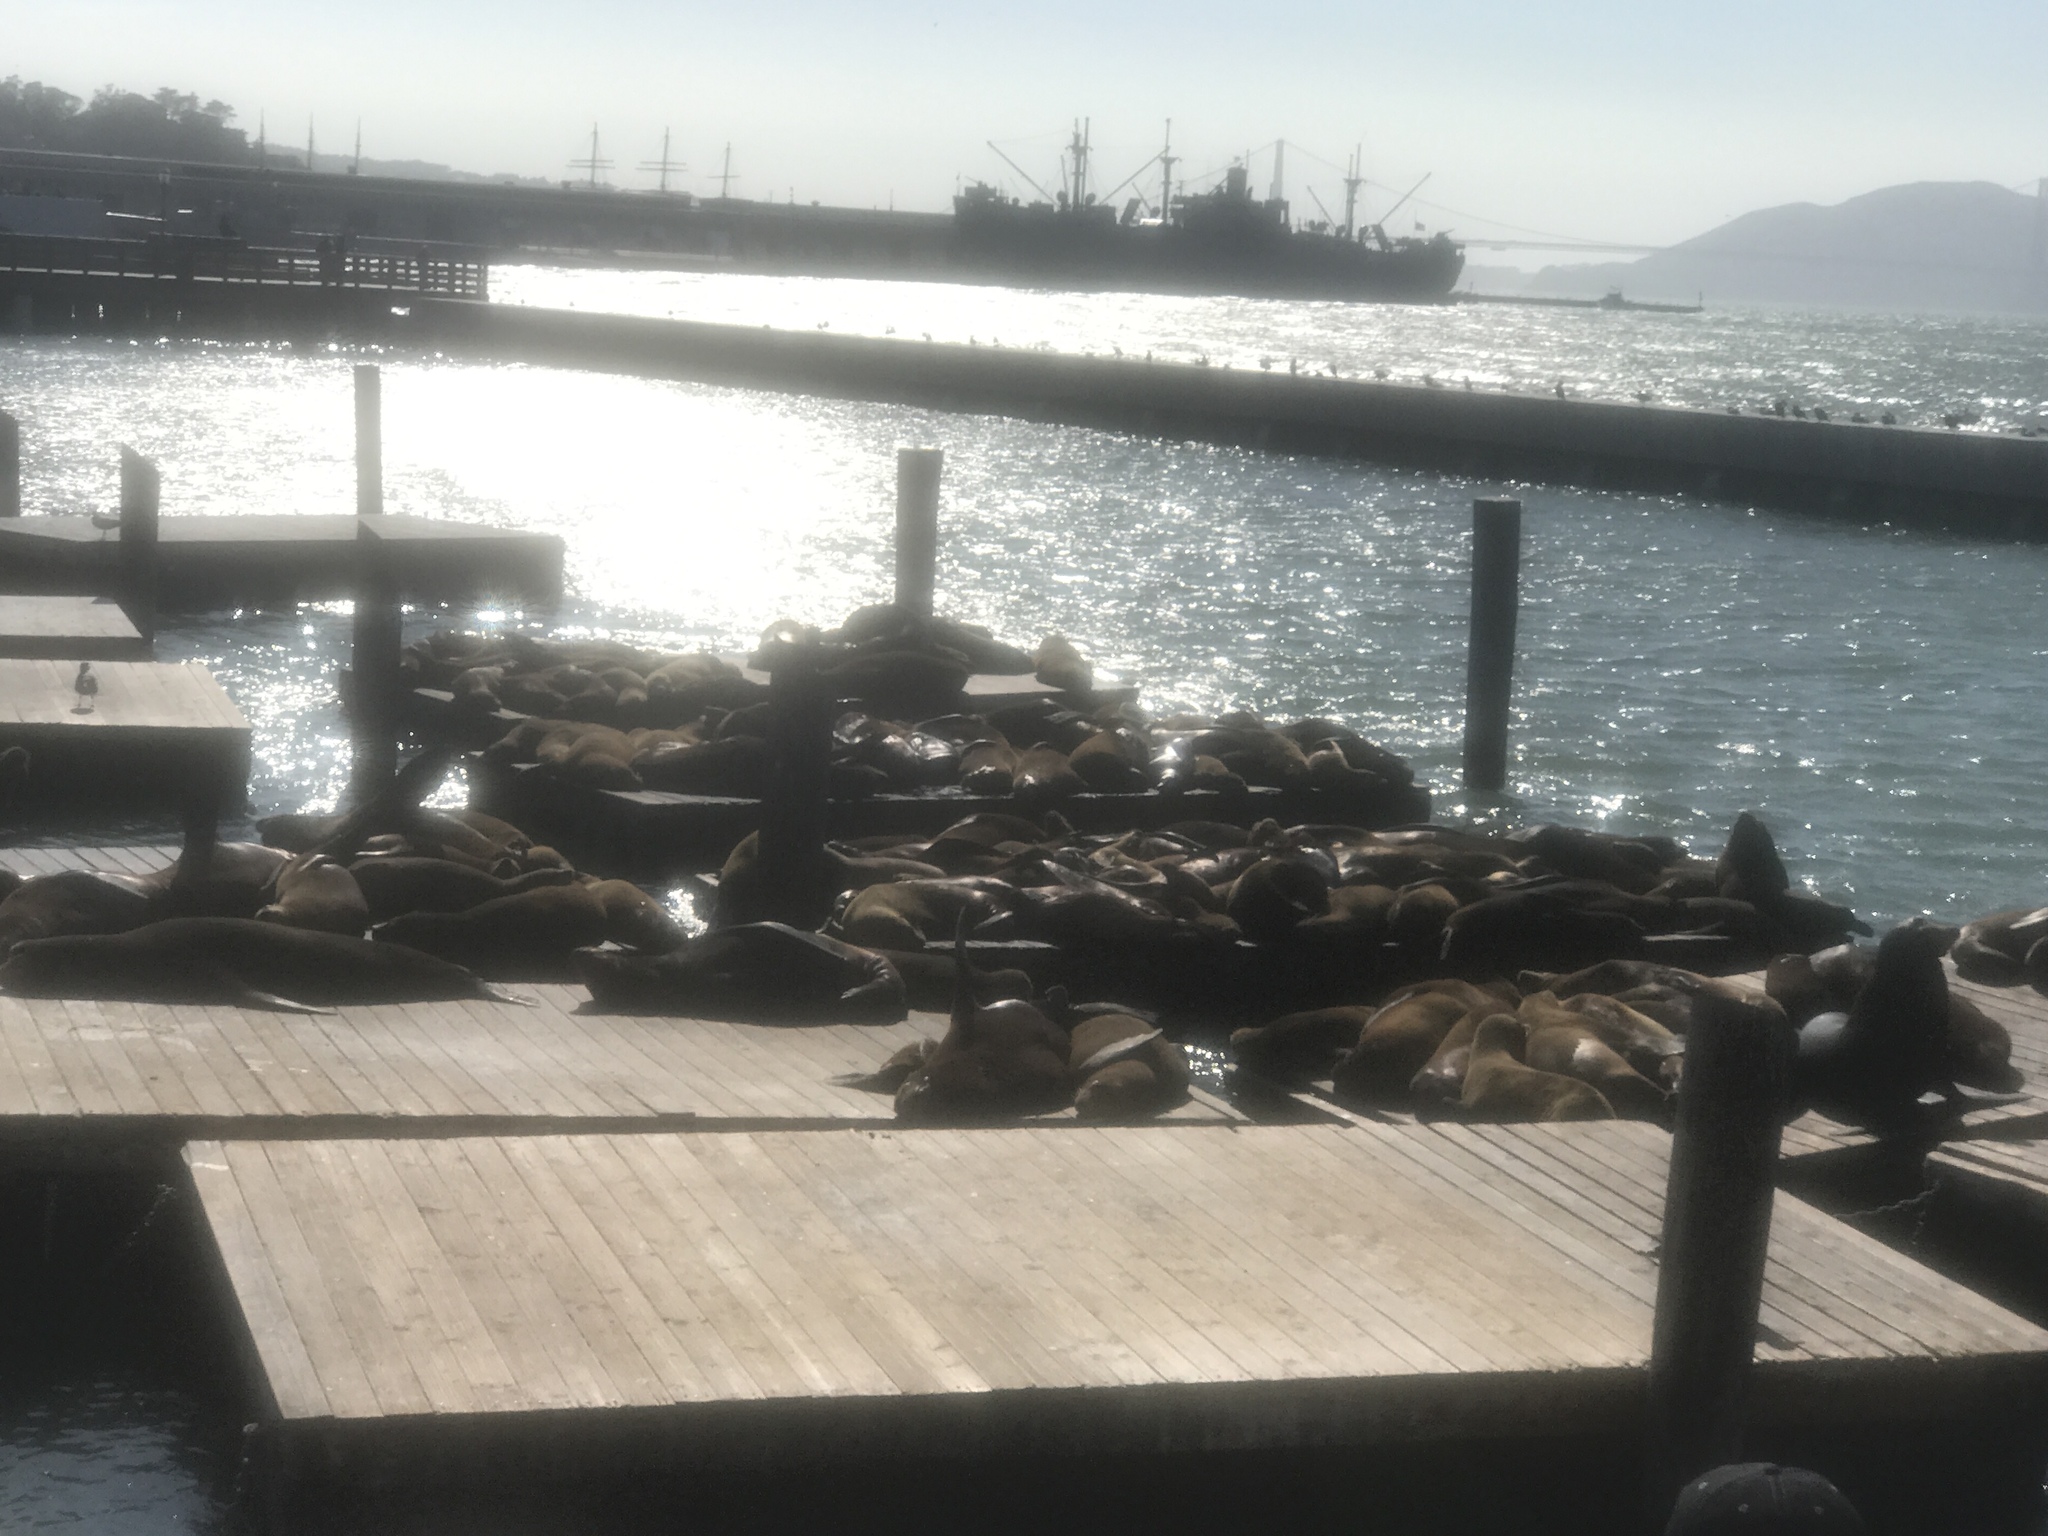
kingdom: Animalia
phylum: Chordata
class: Mammalia
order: Carnivora
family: Otariidae
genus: Zalophus
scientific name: Zalophus californianus
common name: California sea lion
